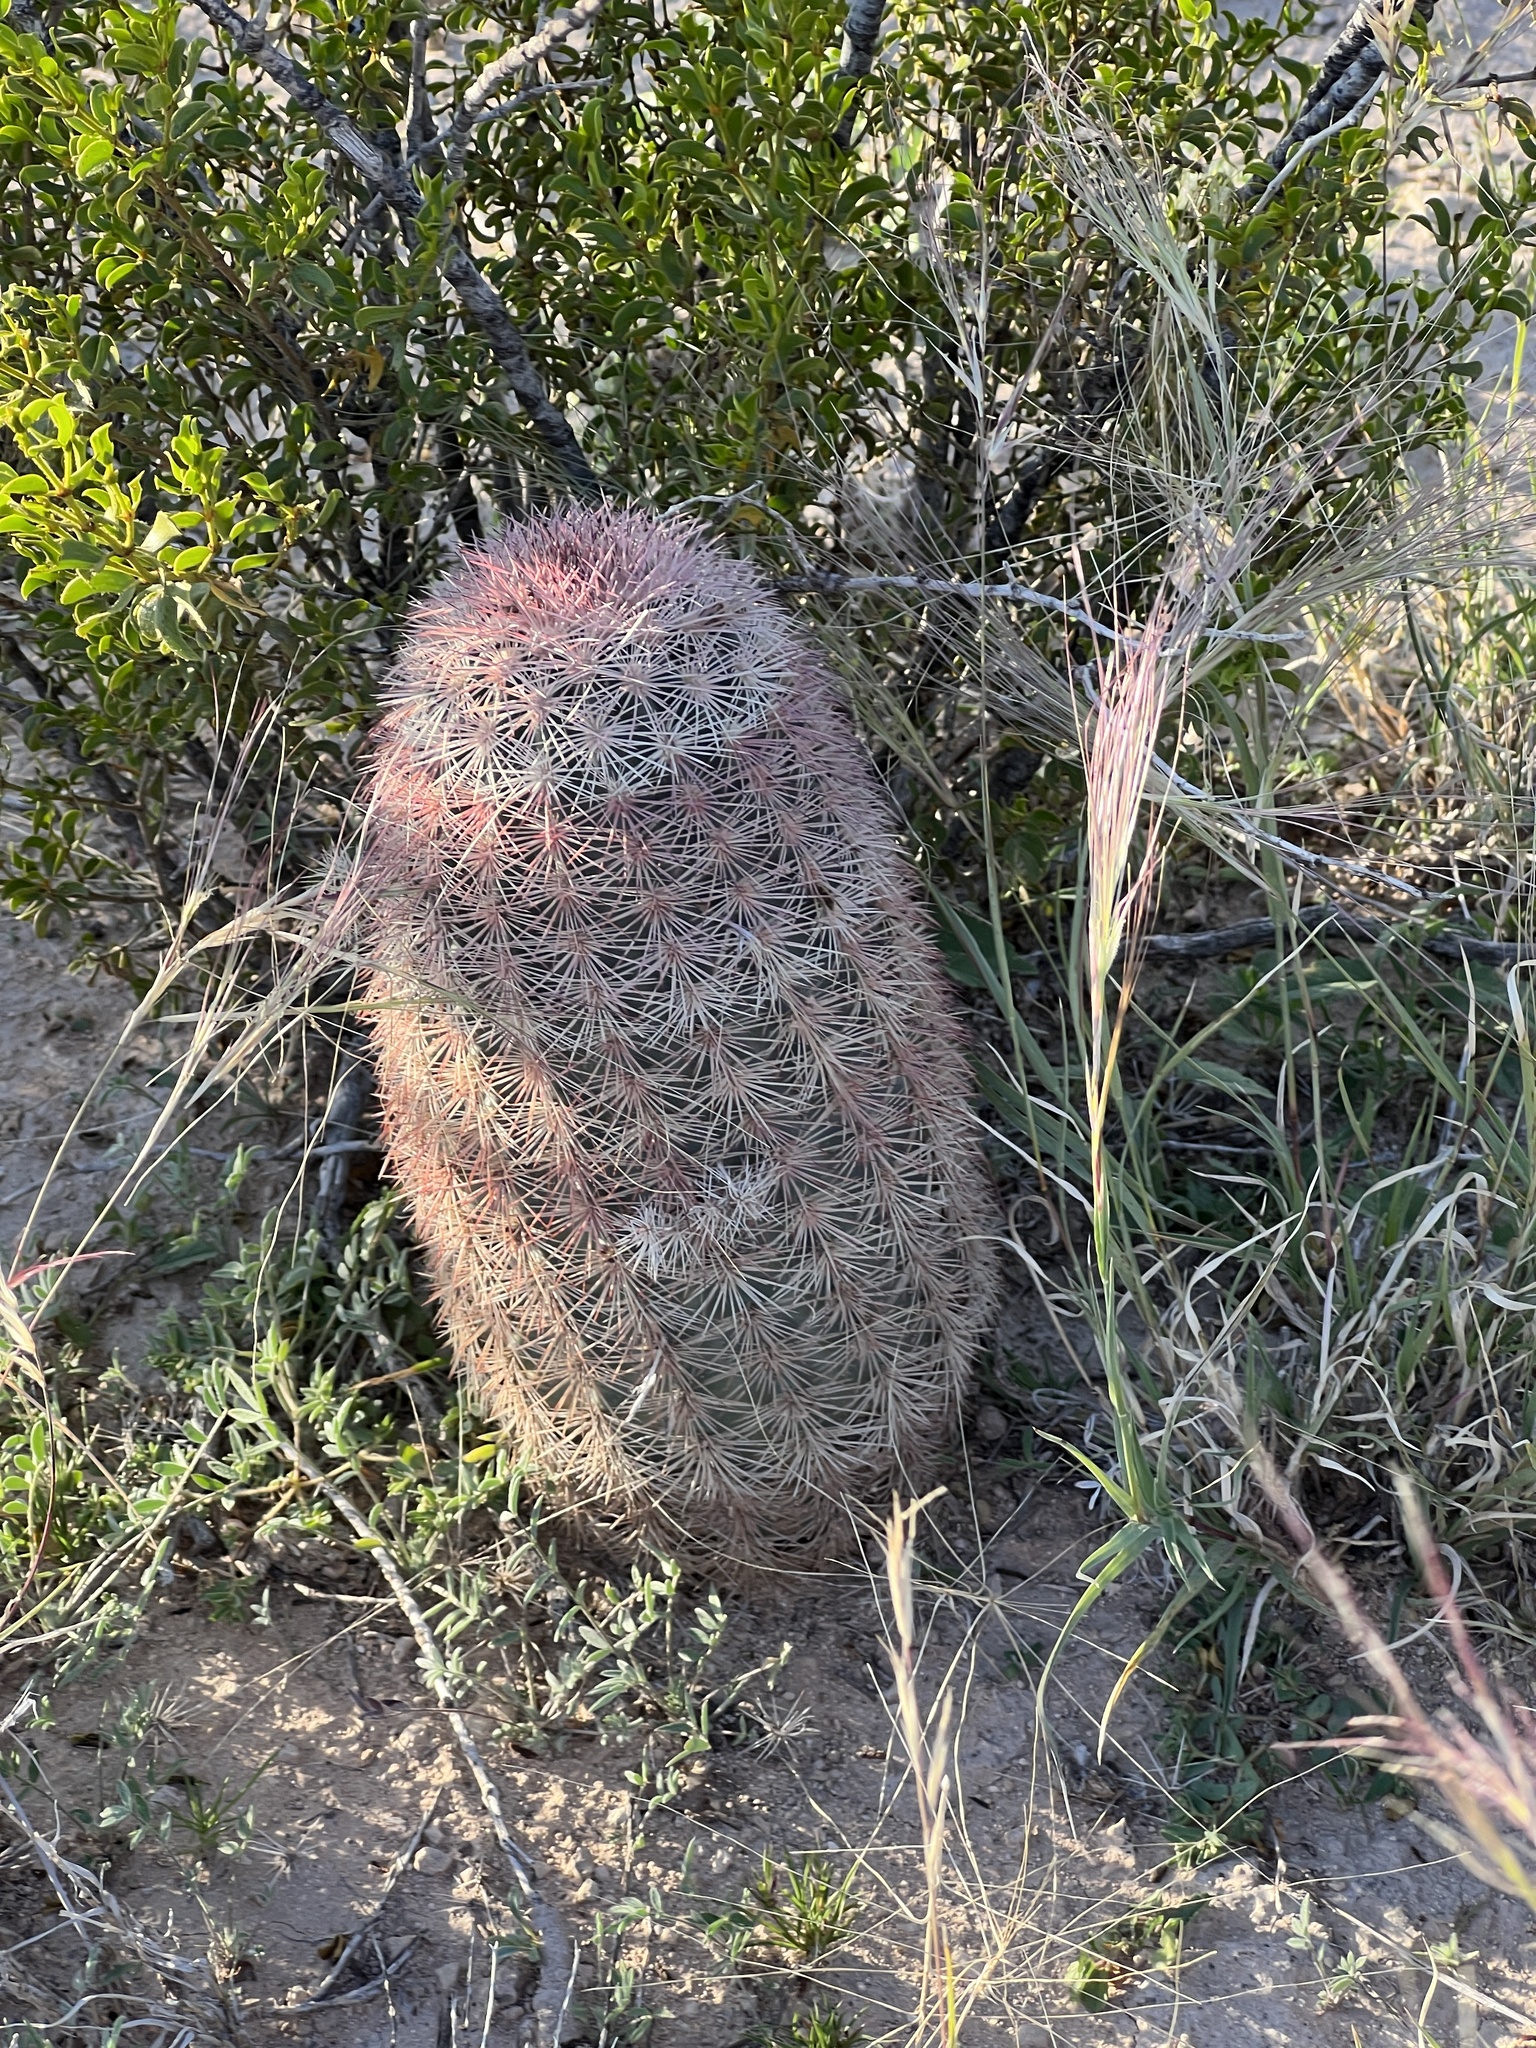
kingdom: Plantae
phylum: Tracheophyta
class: Magnoliopsida
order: Caryophyllales
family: Cactaceae
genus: Echinocereus
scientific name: Echinocereus dasyacanthus
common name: Spiny hedgehog cactus
